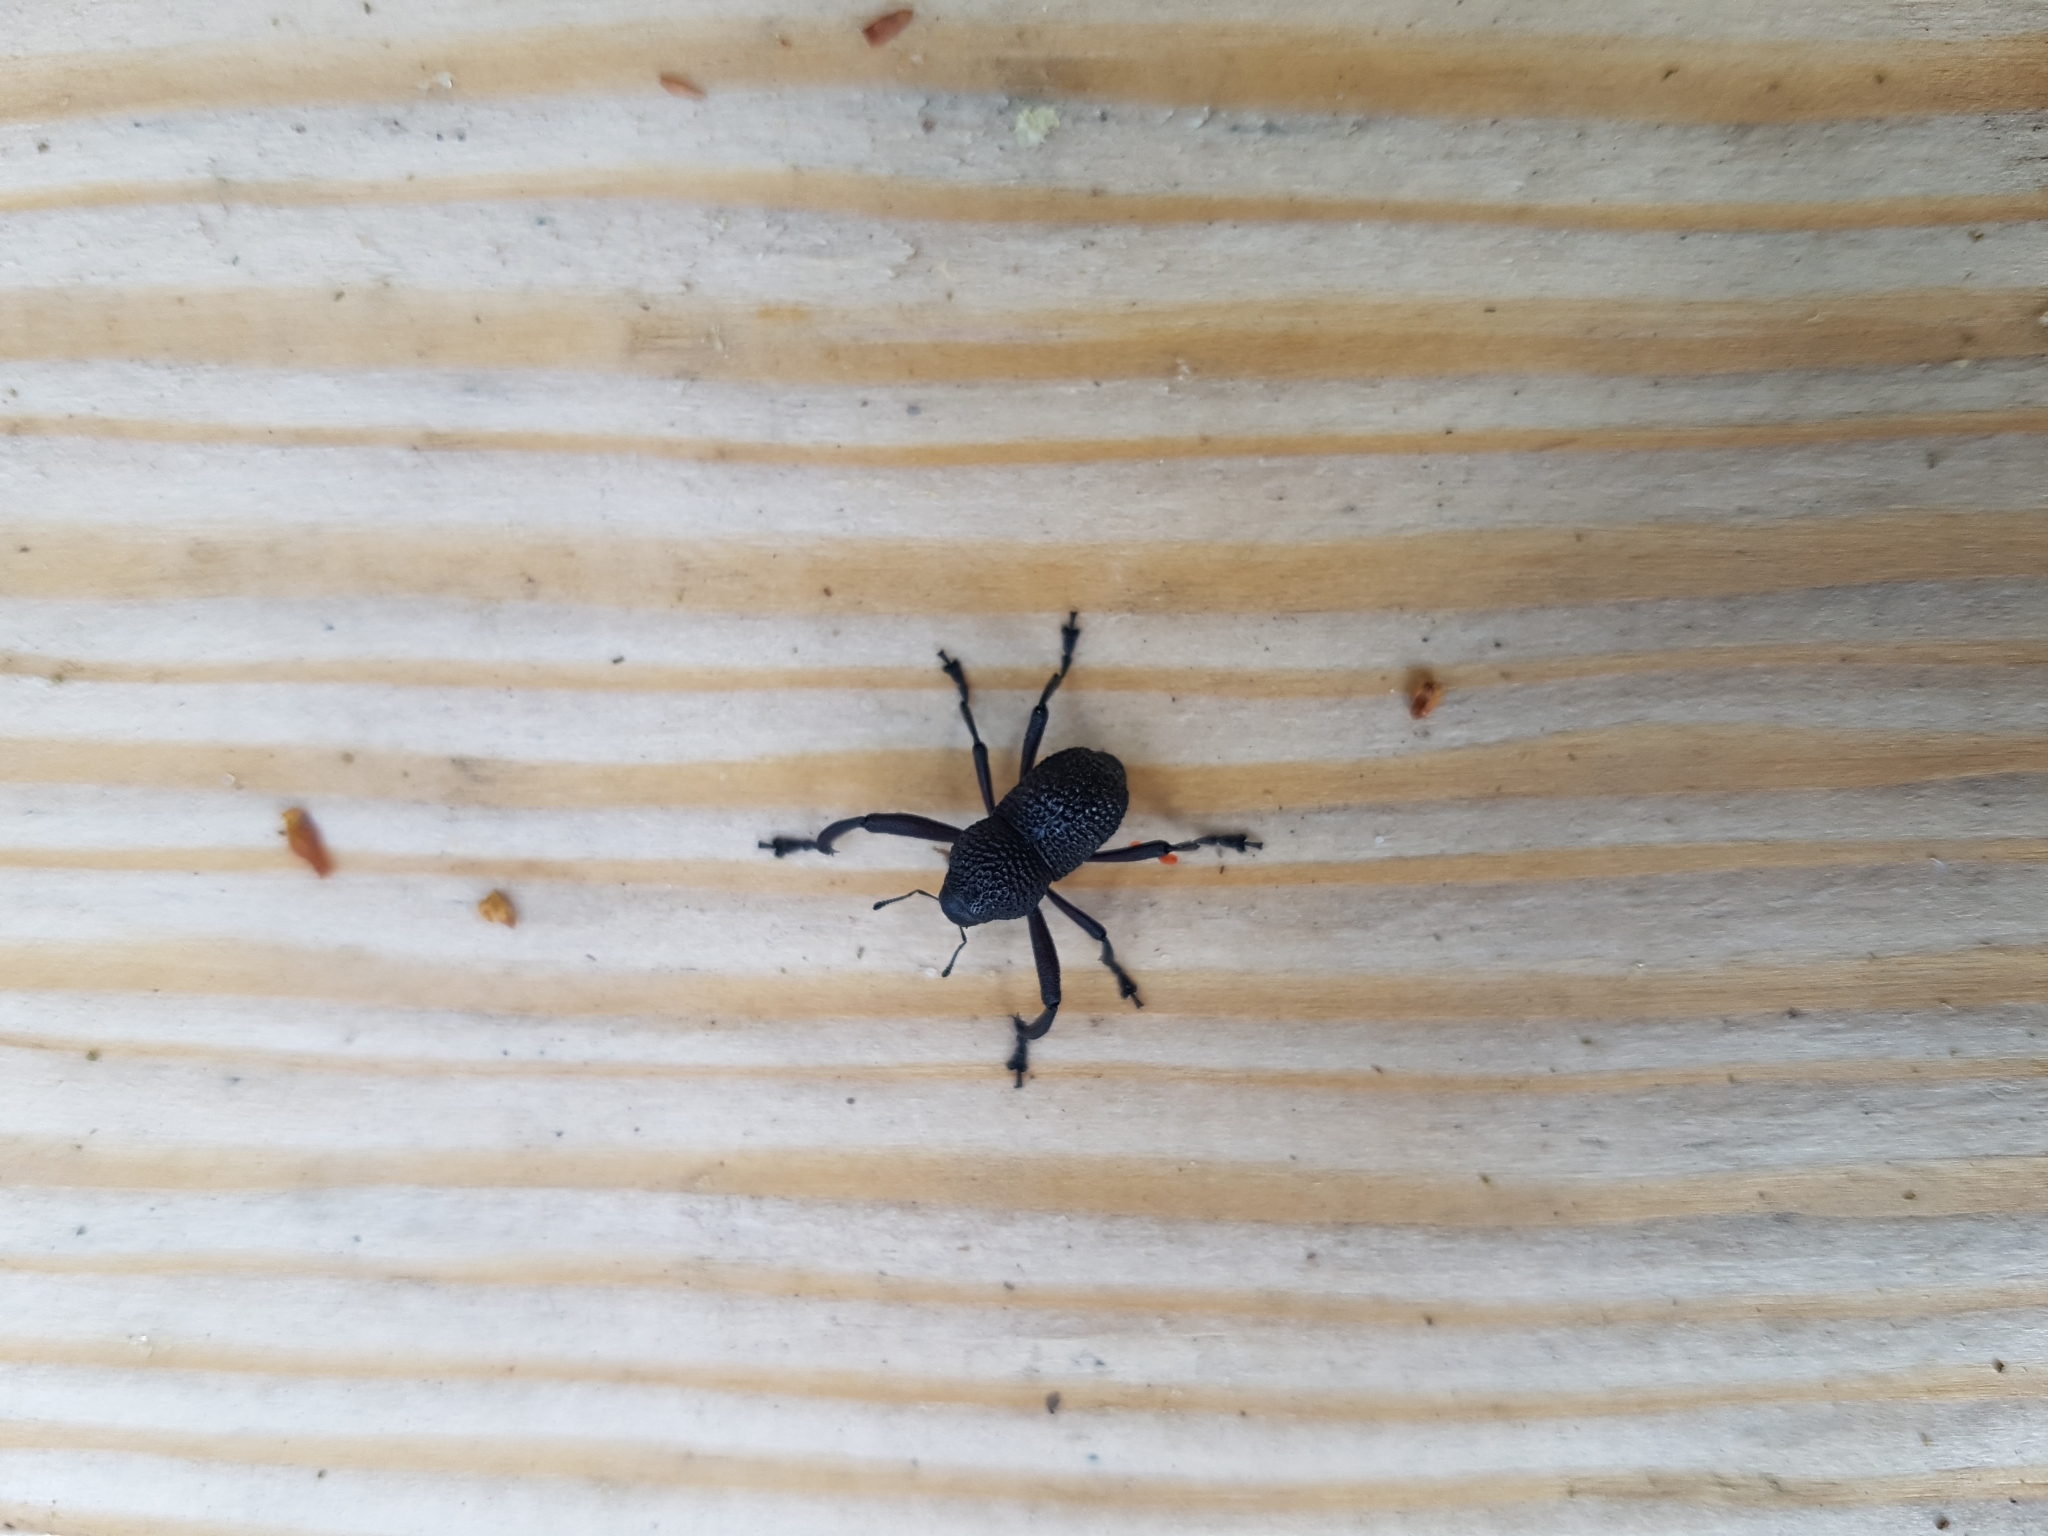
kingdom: Animalia
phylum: Arthropoda
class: Insecta
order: Coleoptera
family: Curculionidae
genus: Rhyephenes
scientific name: Rhyephenes maillei
